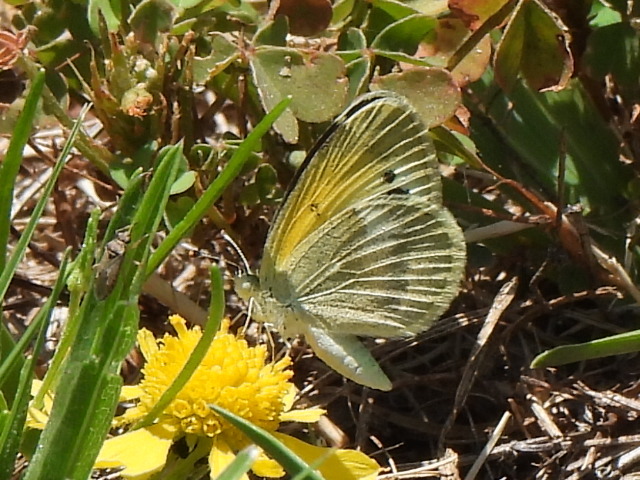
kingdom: Animalia
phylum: Arthropoda
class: Insecta
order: Lepidoptera
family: Pieridae
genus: Nathalis
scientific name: Nathalis iole
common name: Dainty sulphur
